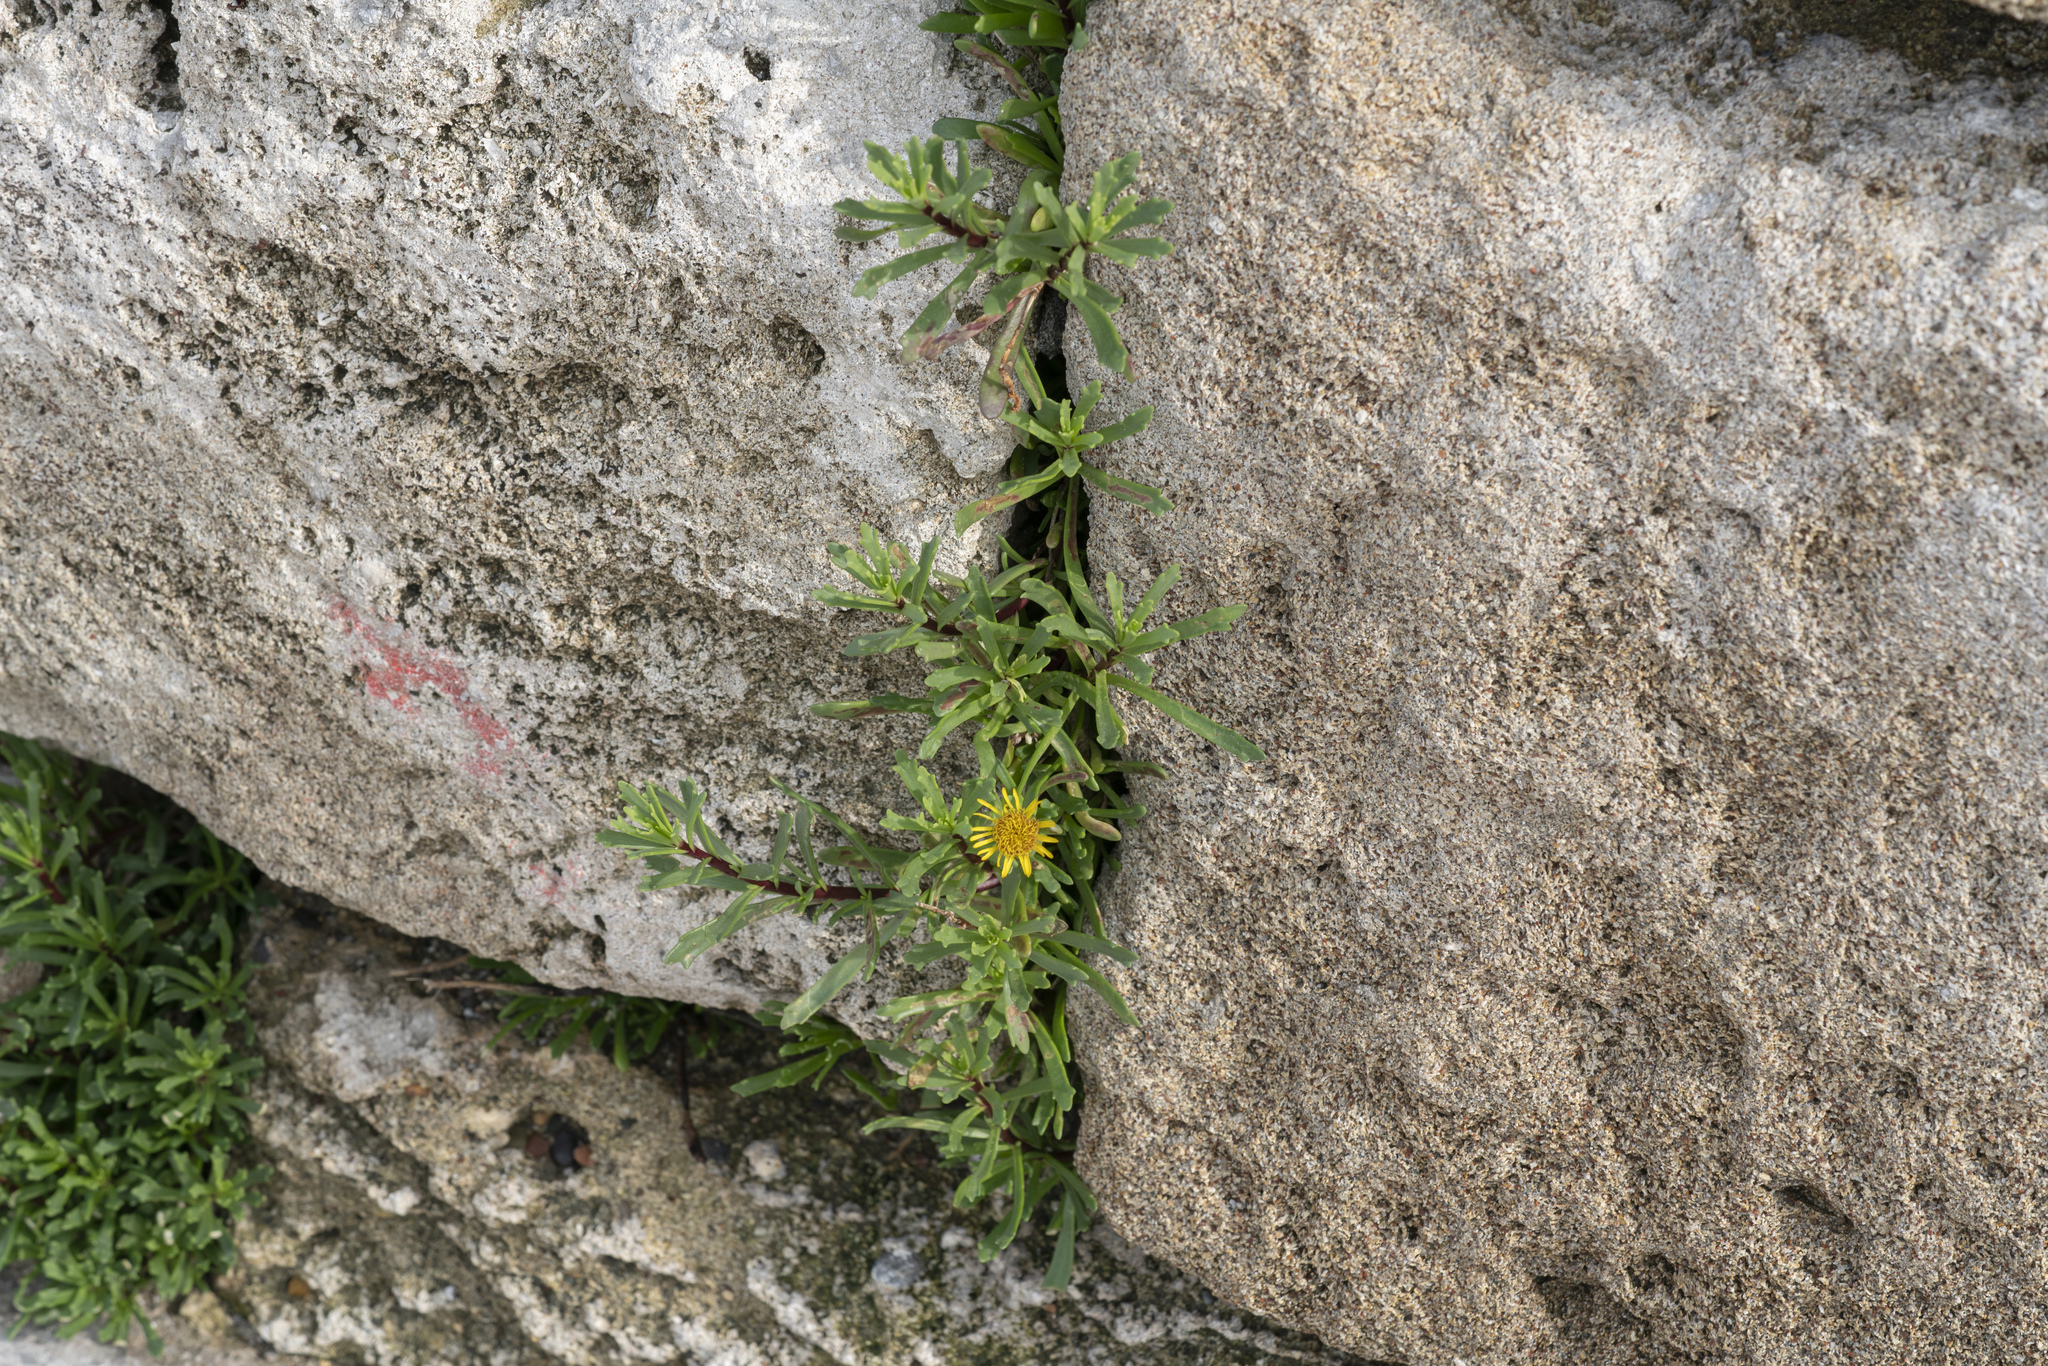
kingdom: Plantae
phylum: Tracheophyta
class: Magnoliopsida
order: Asterales
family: Asteraceae
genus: Limbarda
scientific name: Limbarda crithmoides
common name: Golden samphire
